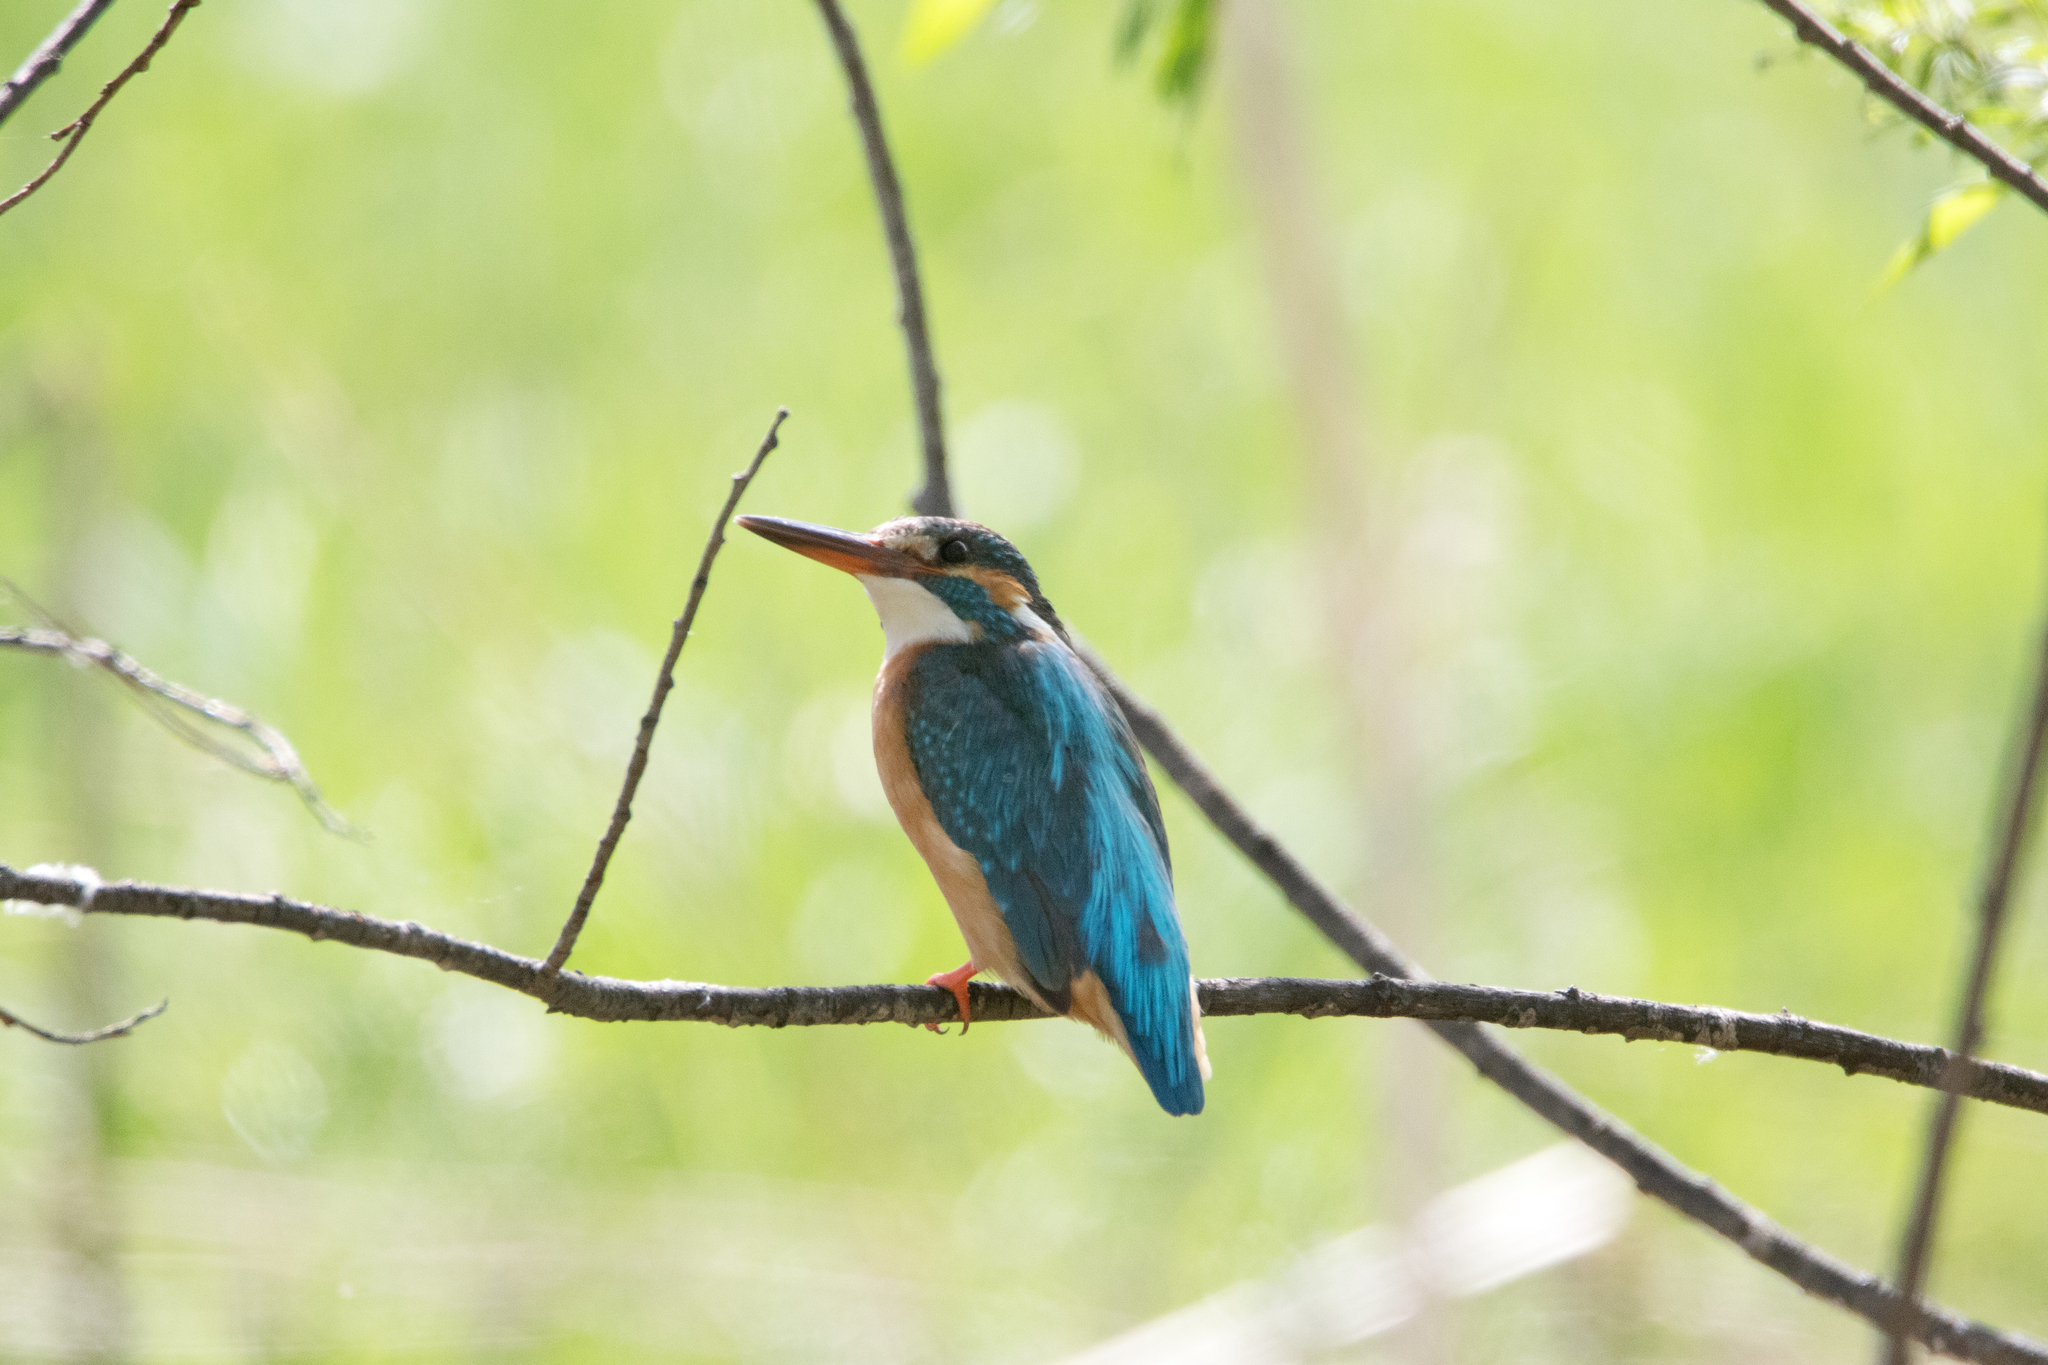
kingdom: Animalia
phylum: Chordata
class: Aves
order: Coraciiformes
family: Alcedinidae
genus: Alcedo
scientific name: Alcedo atthis
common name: Common kingfisher
